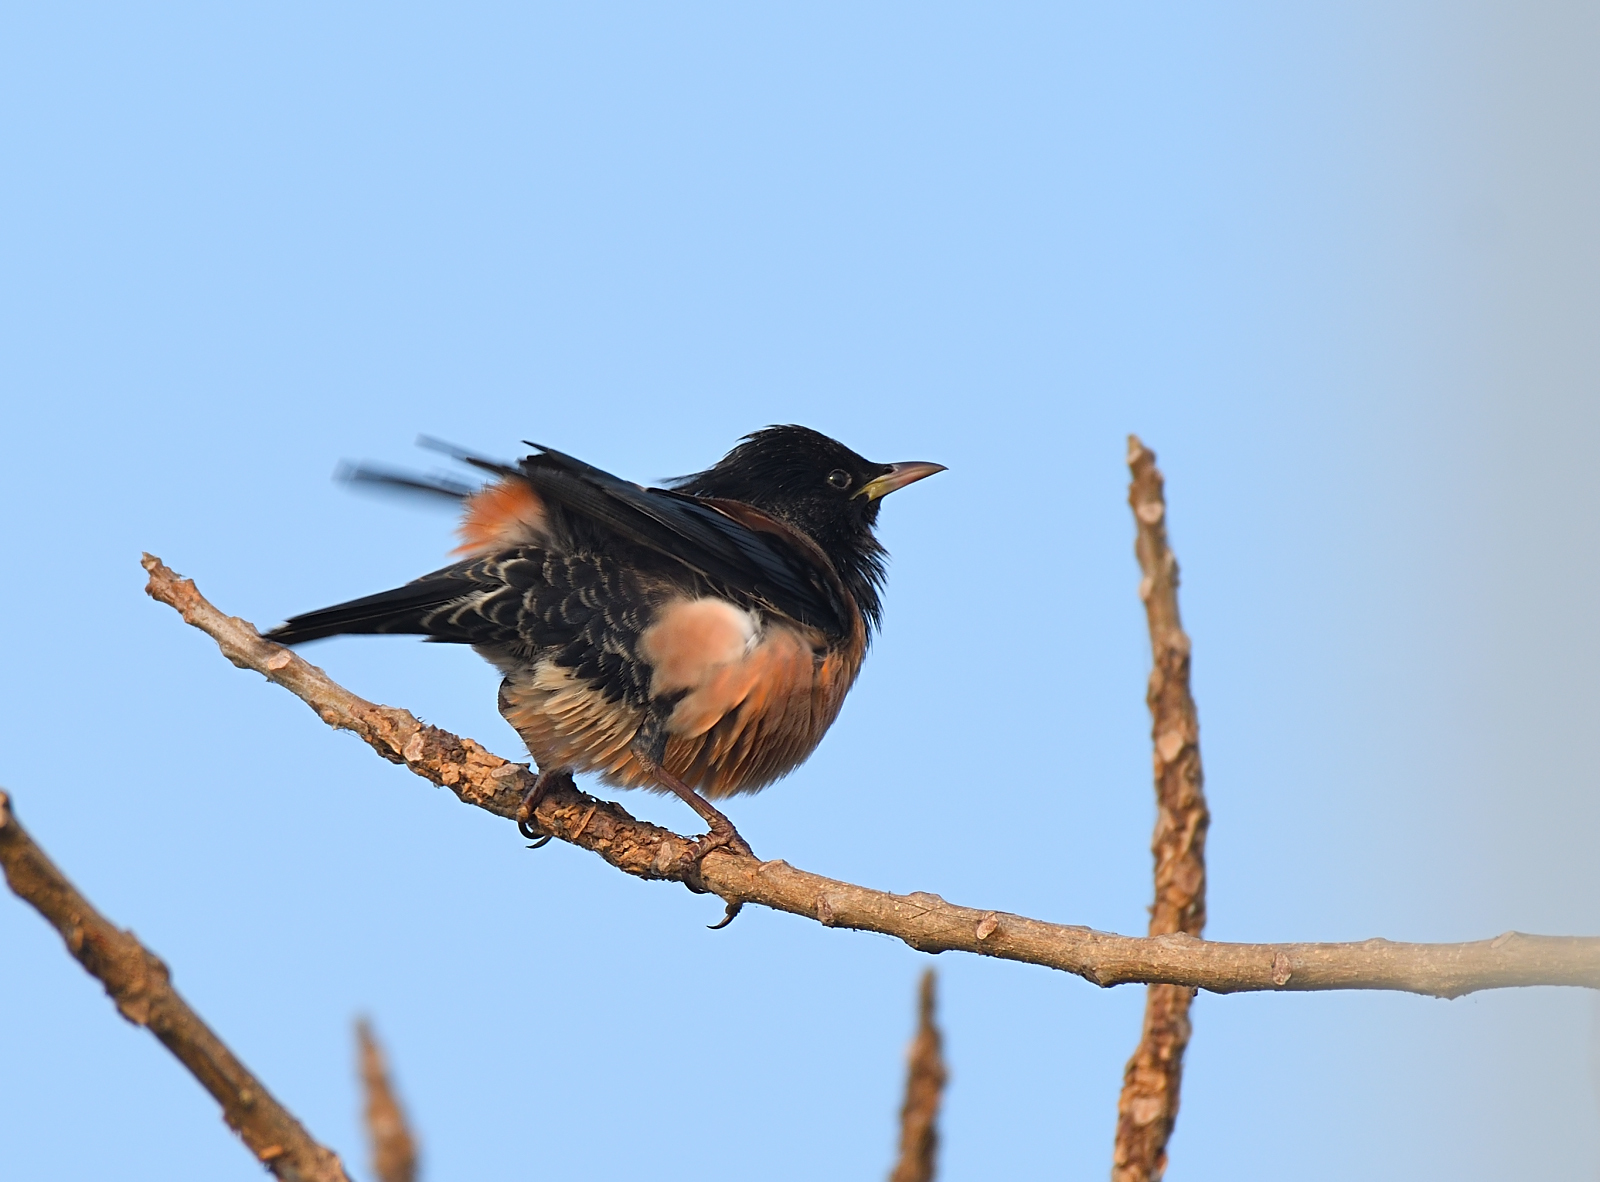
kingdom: Animalia
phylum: Chordata
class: Aves
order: Passeriformes
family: Sturnidae
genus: Pastor
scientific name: Pastor roseus
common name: Rosy starling
